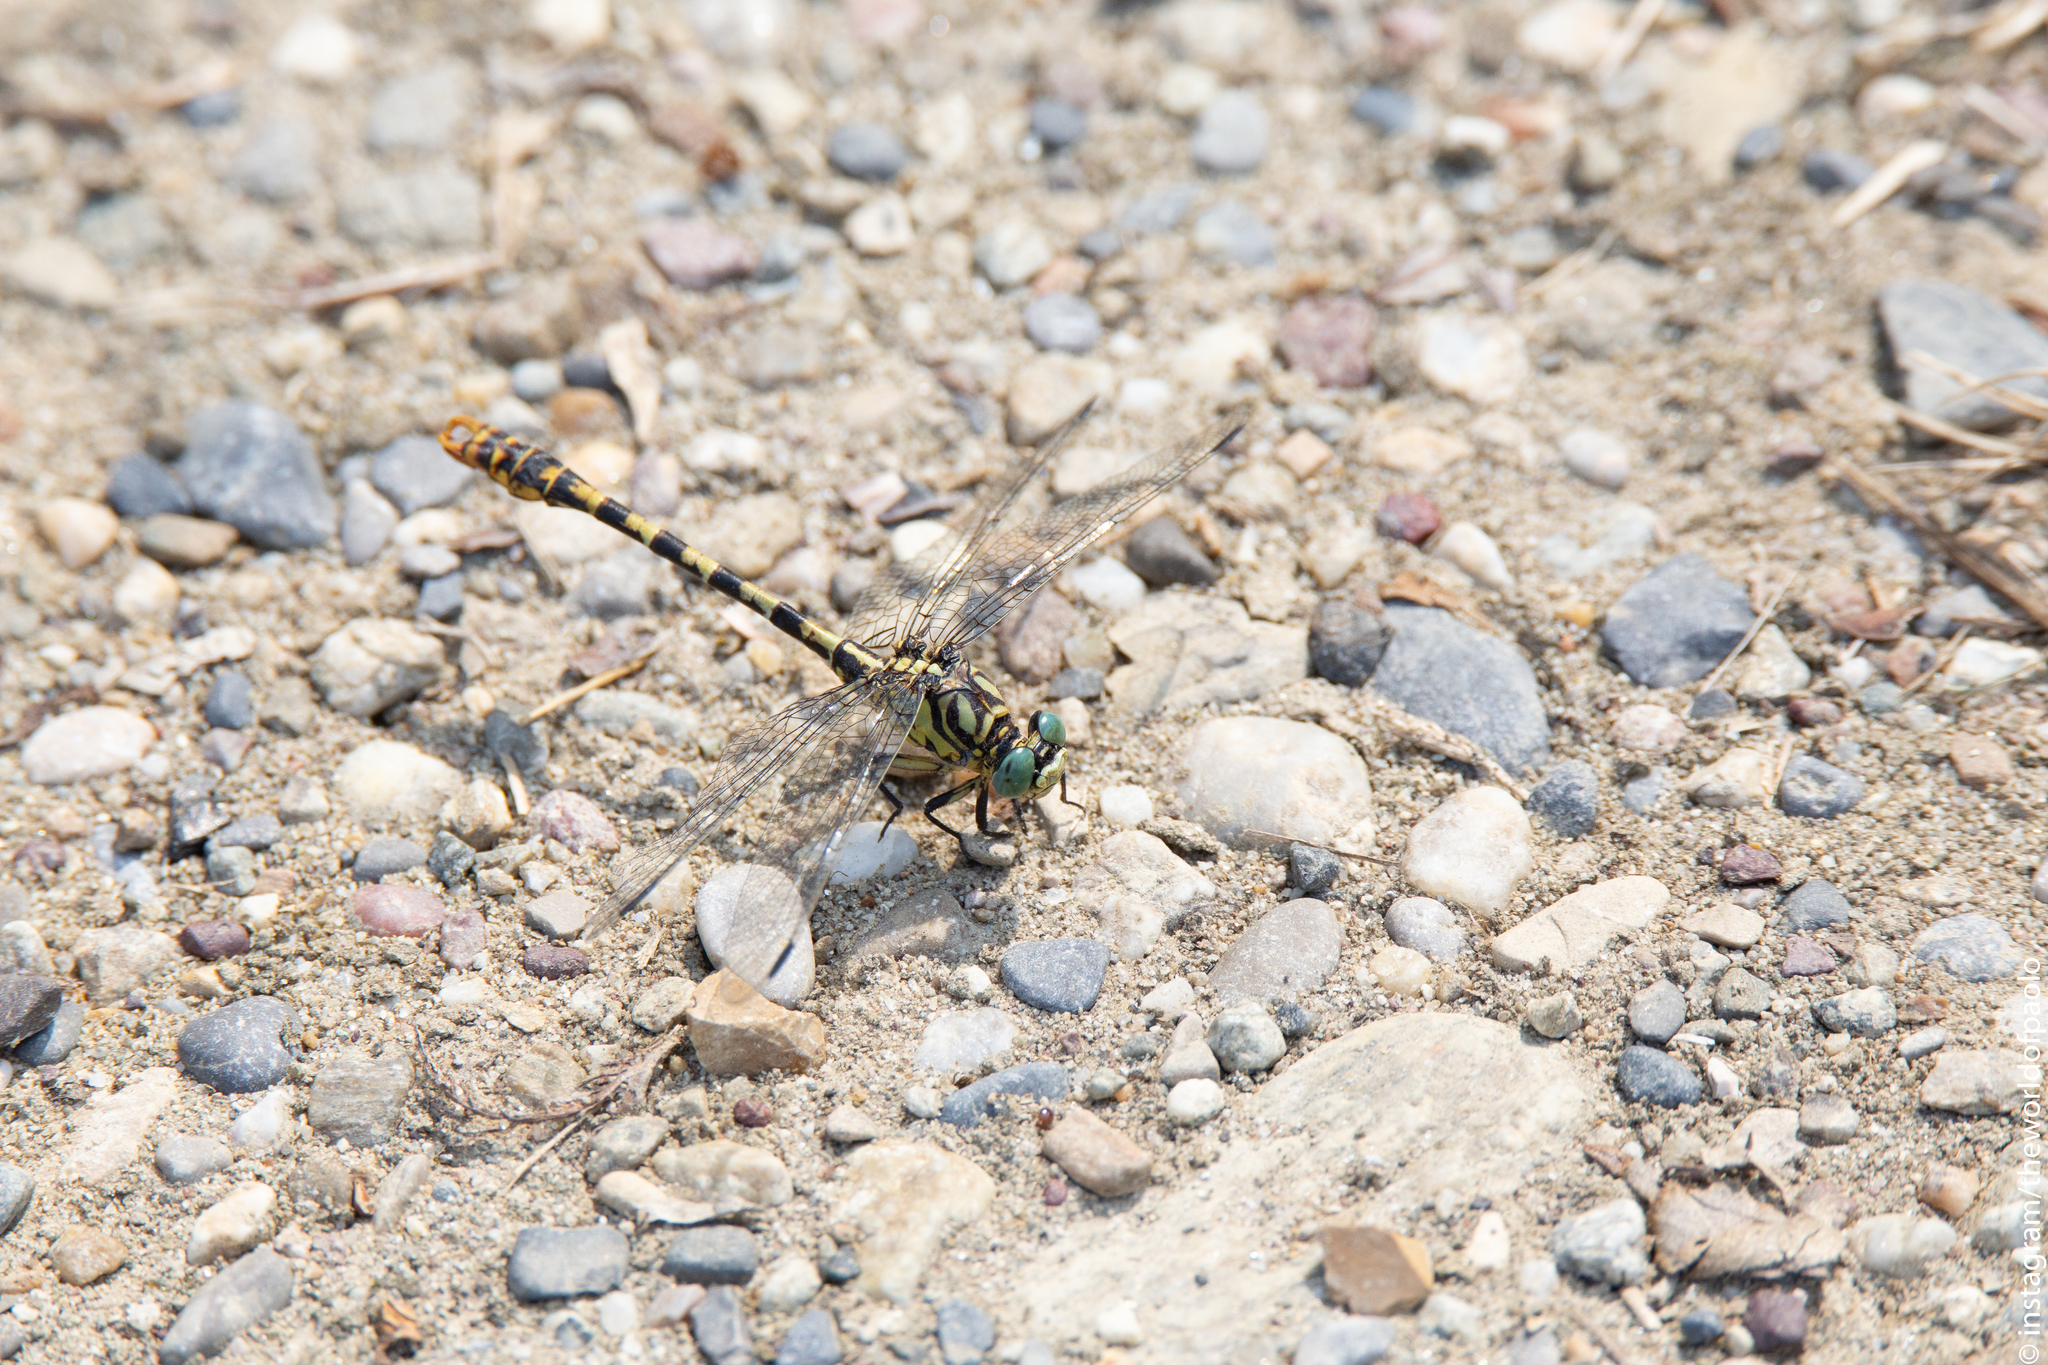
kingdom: Animalia
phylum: Arthropoda
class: Insecta
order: Odonata
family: Gomphidae
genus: Onychogomphus
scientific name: Onychogomphus forcipatus
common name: Small pincertail
